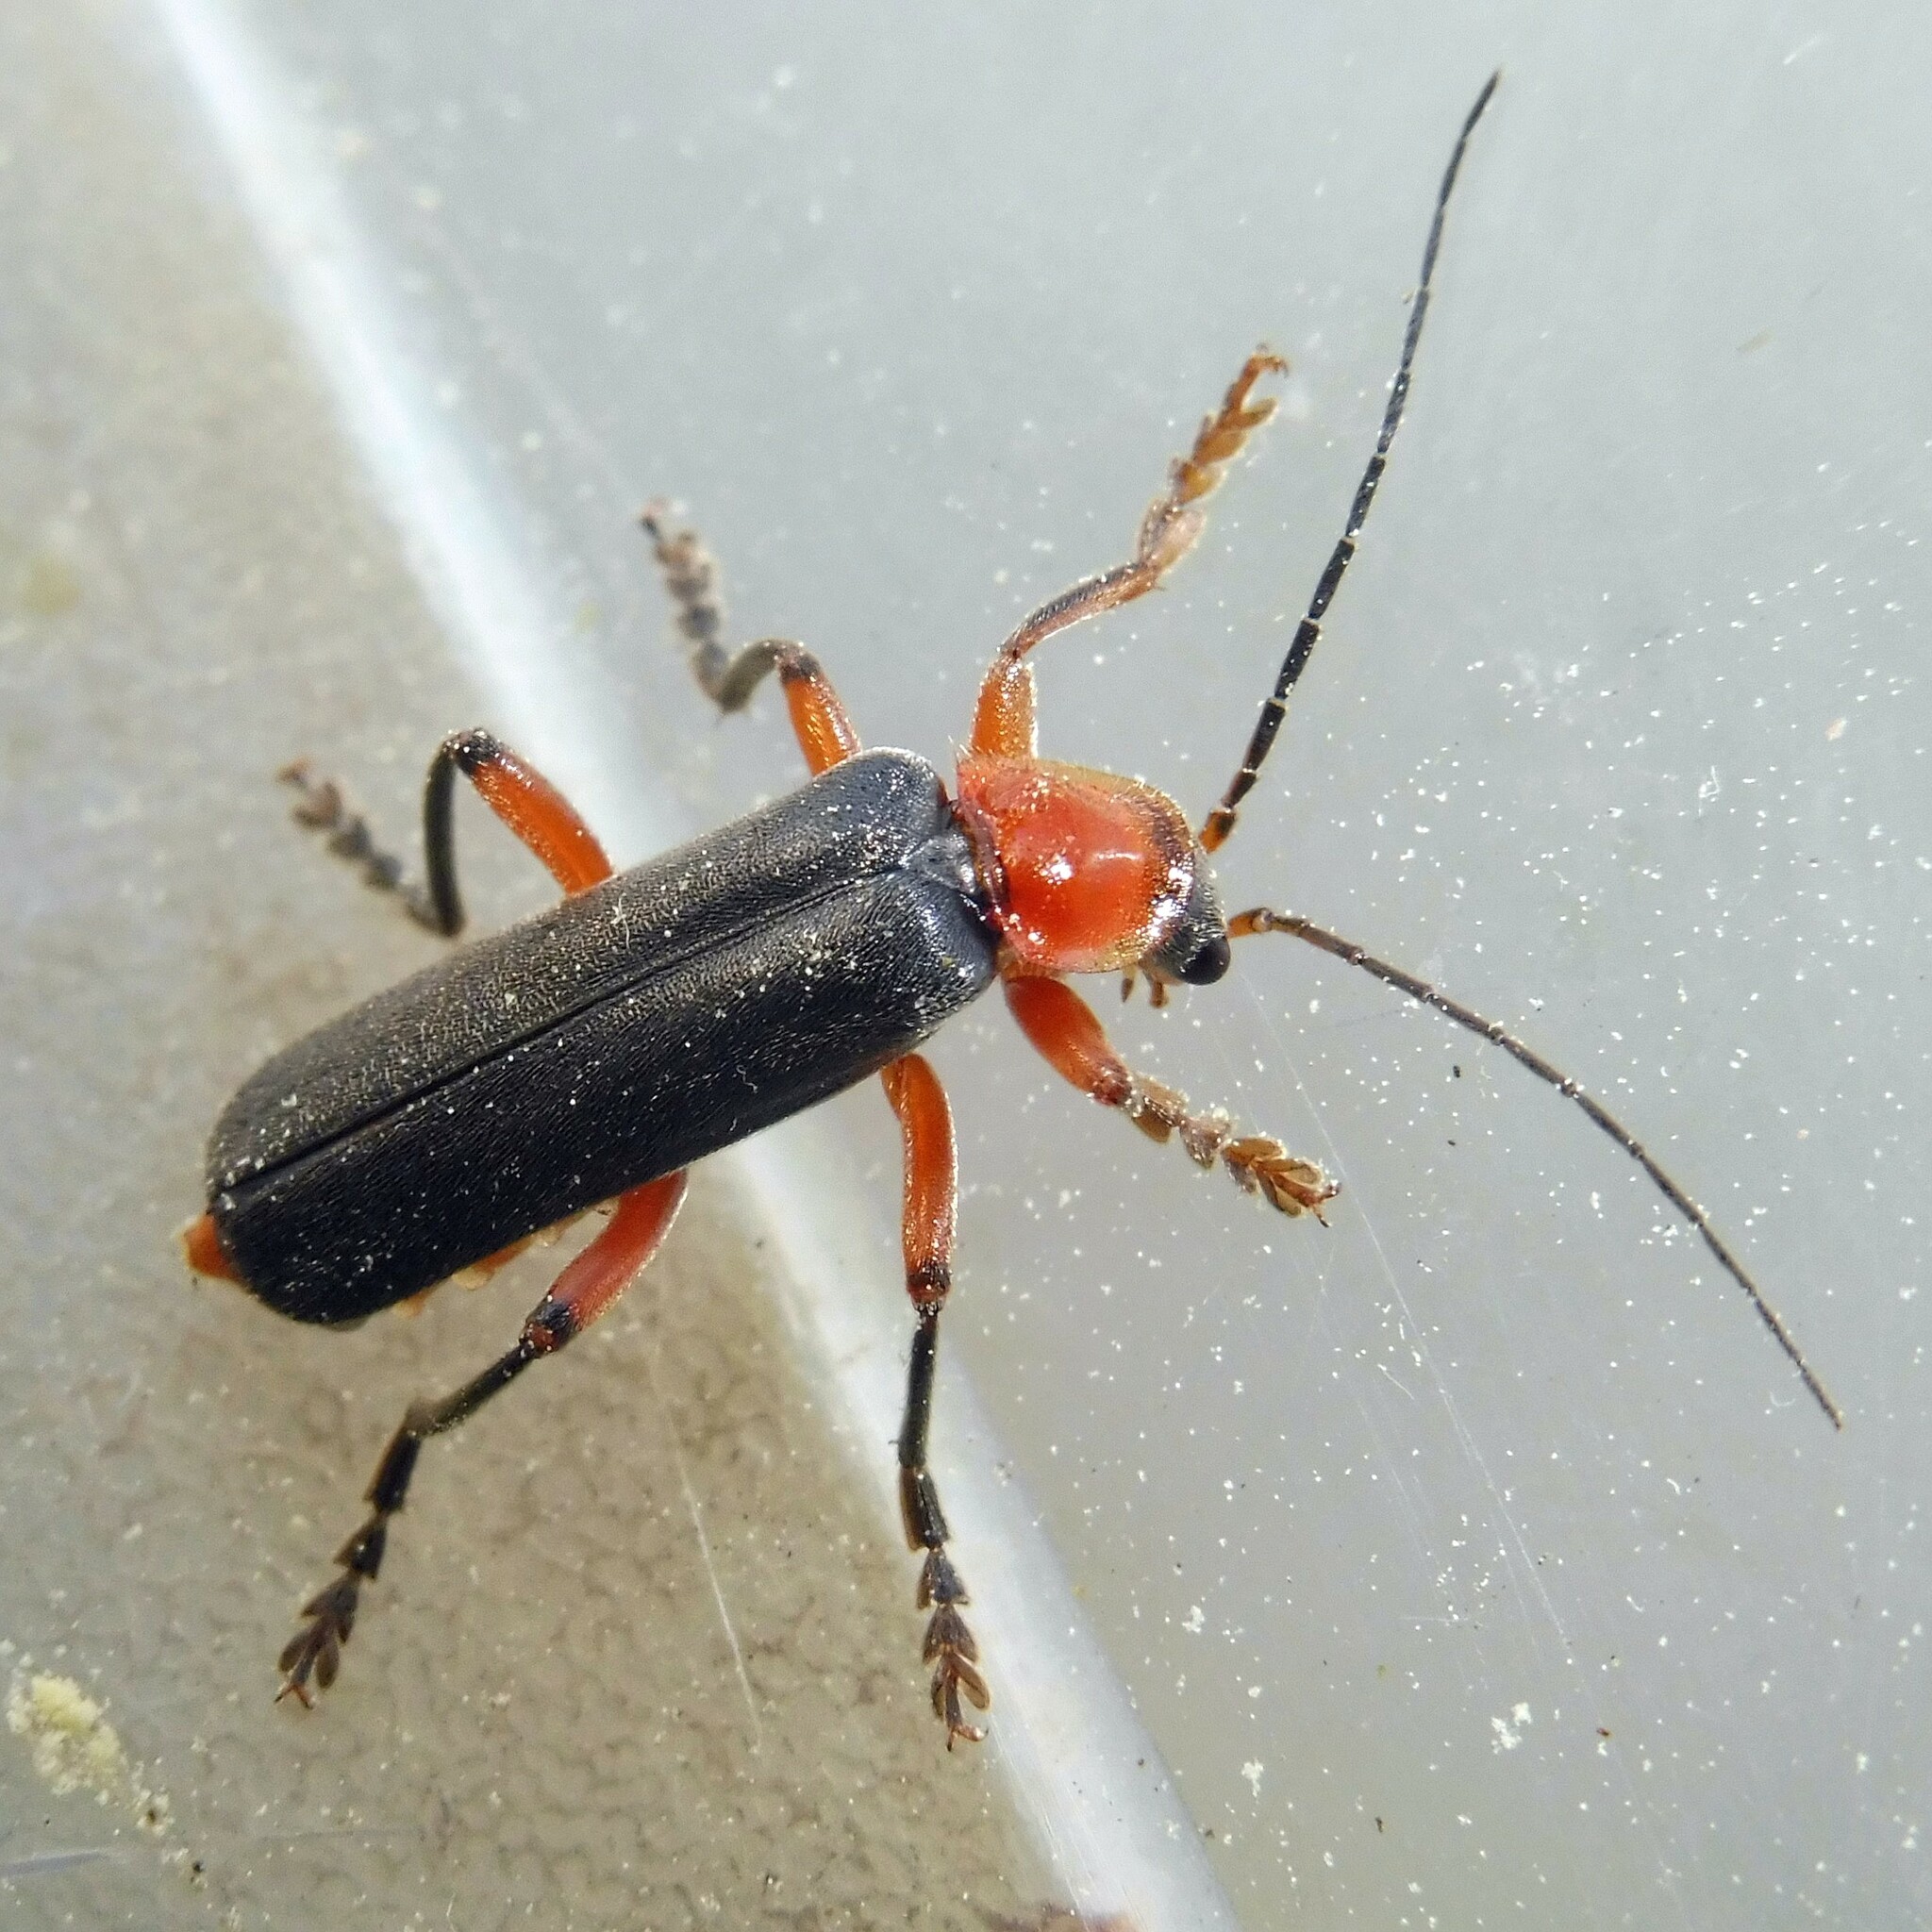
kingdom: Animalia
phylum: Arthropoda
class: Insecta
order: Coleoptera
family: Cantharidae
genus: Cantharis
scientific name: Cantharis pellucida
